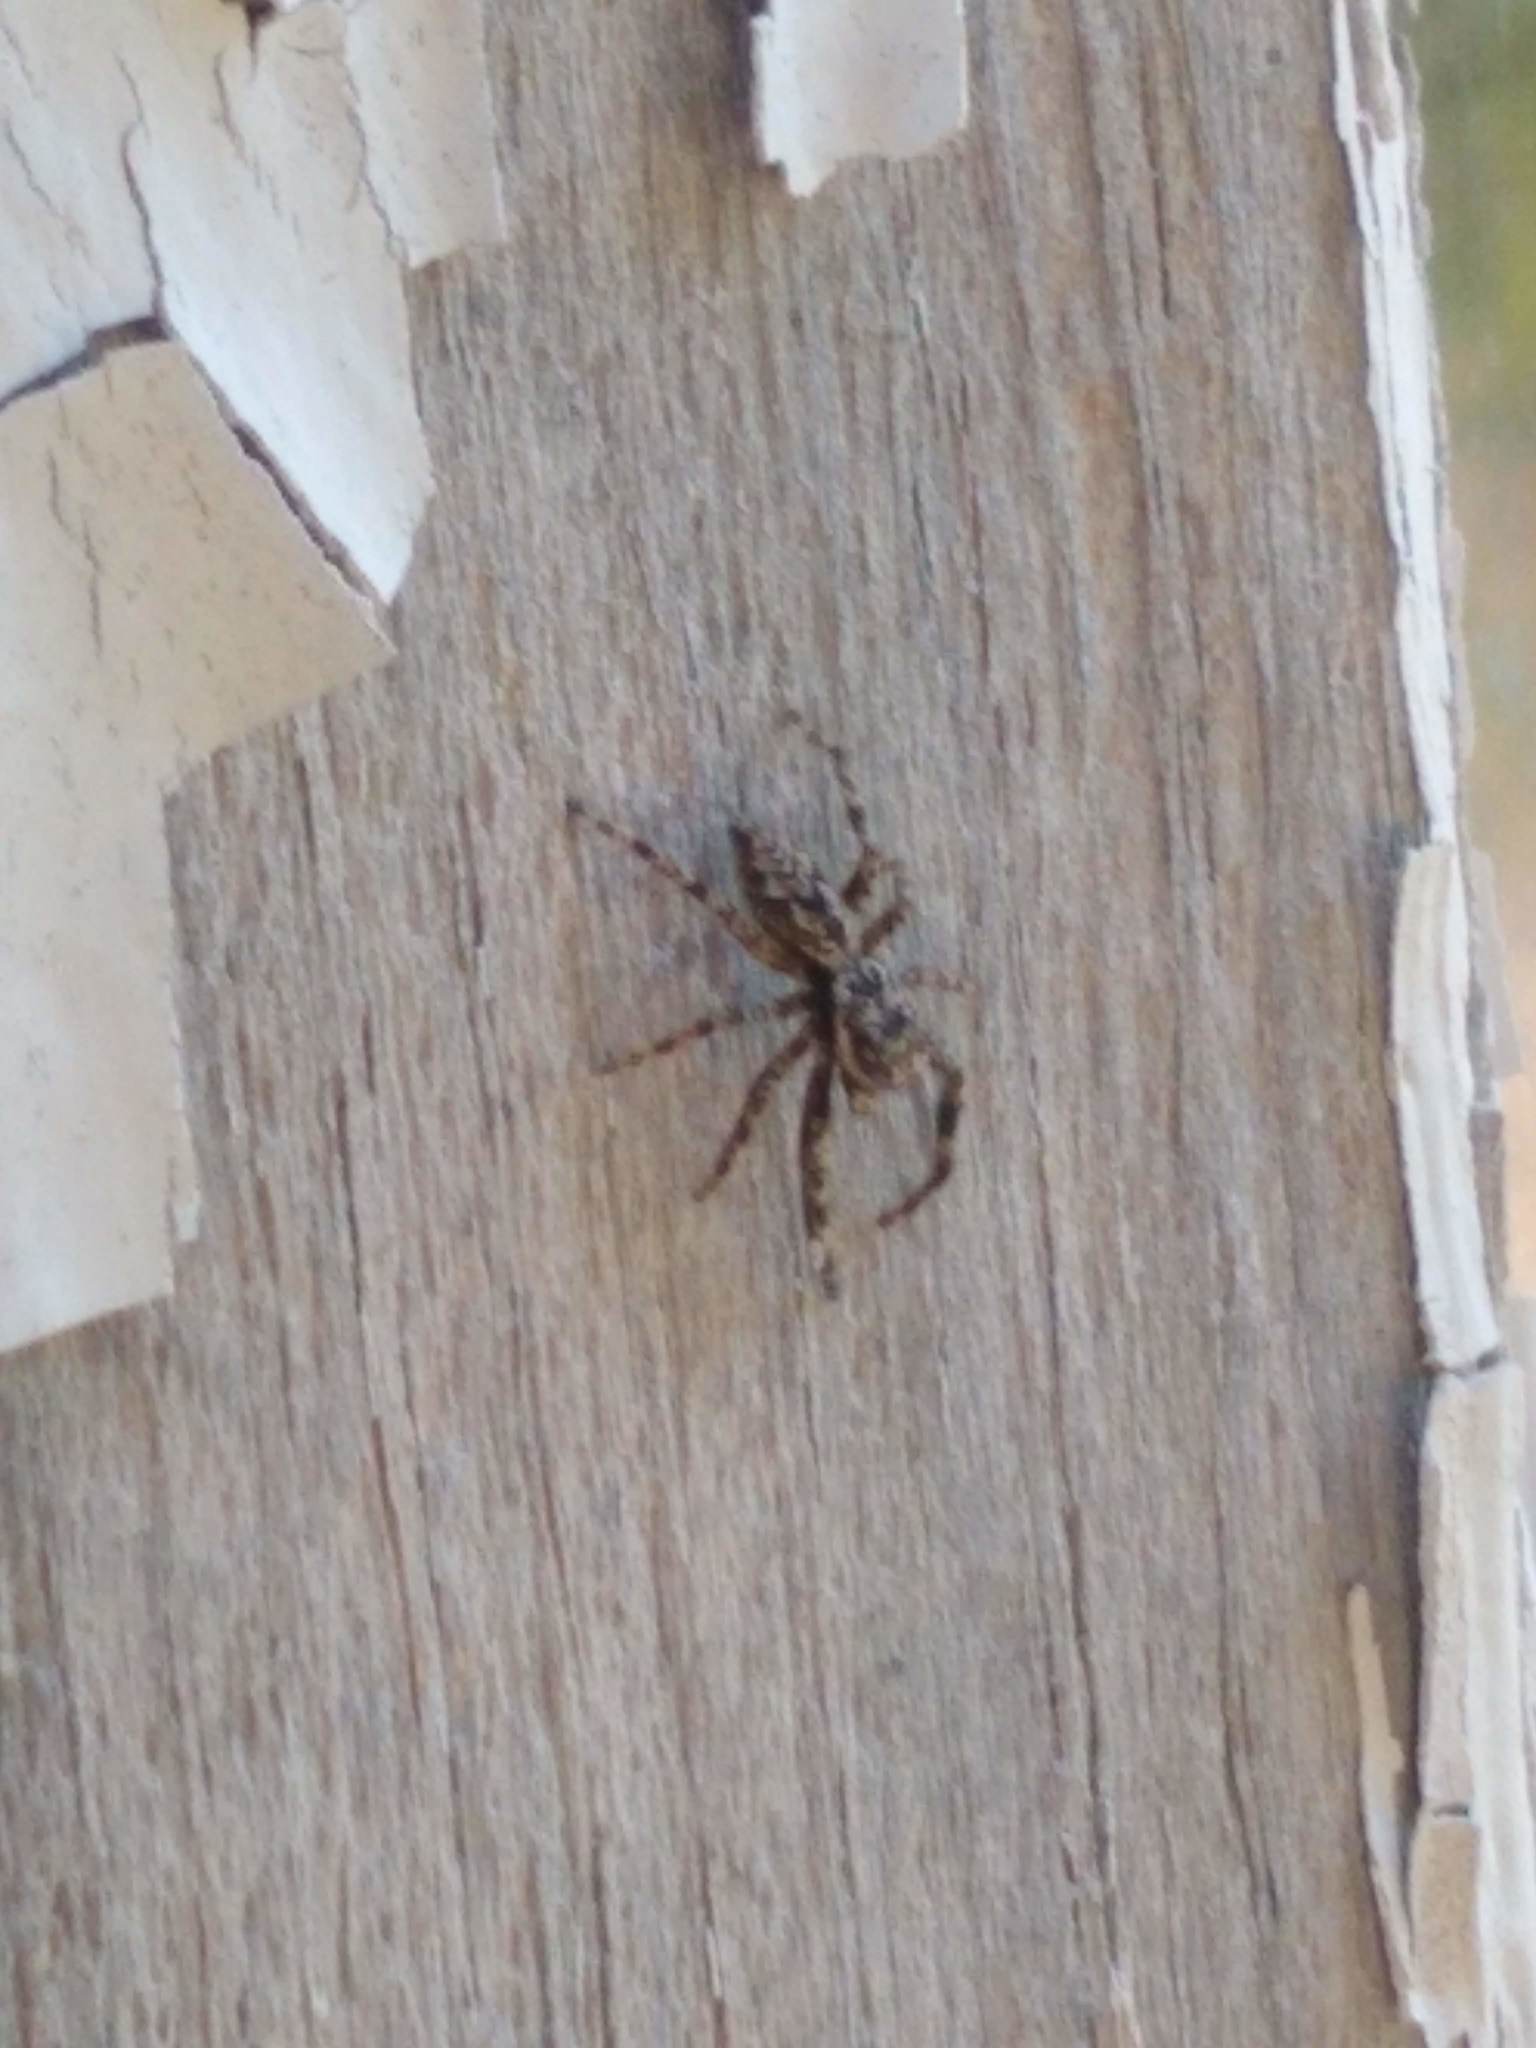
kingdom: Animalia
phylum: Arthropoda
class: Arachnida
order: Araneae
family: Salticidae
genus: Platycryptus
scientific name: Platycryptus undatus
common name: Tan jumping spider
